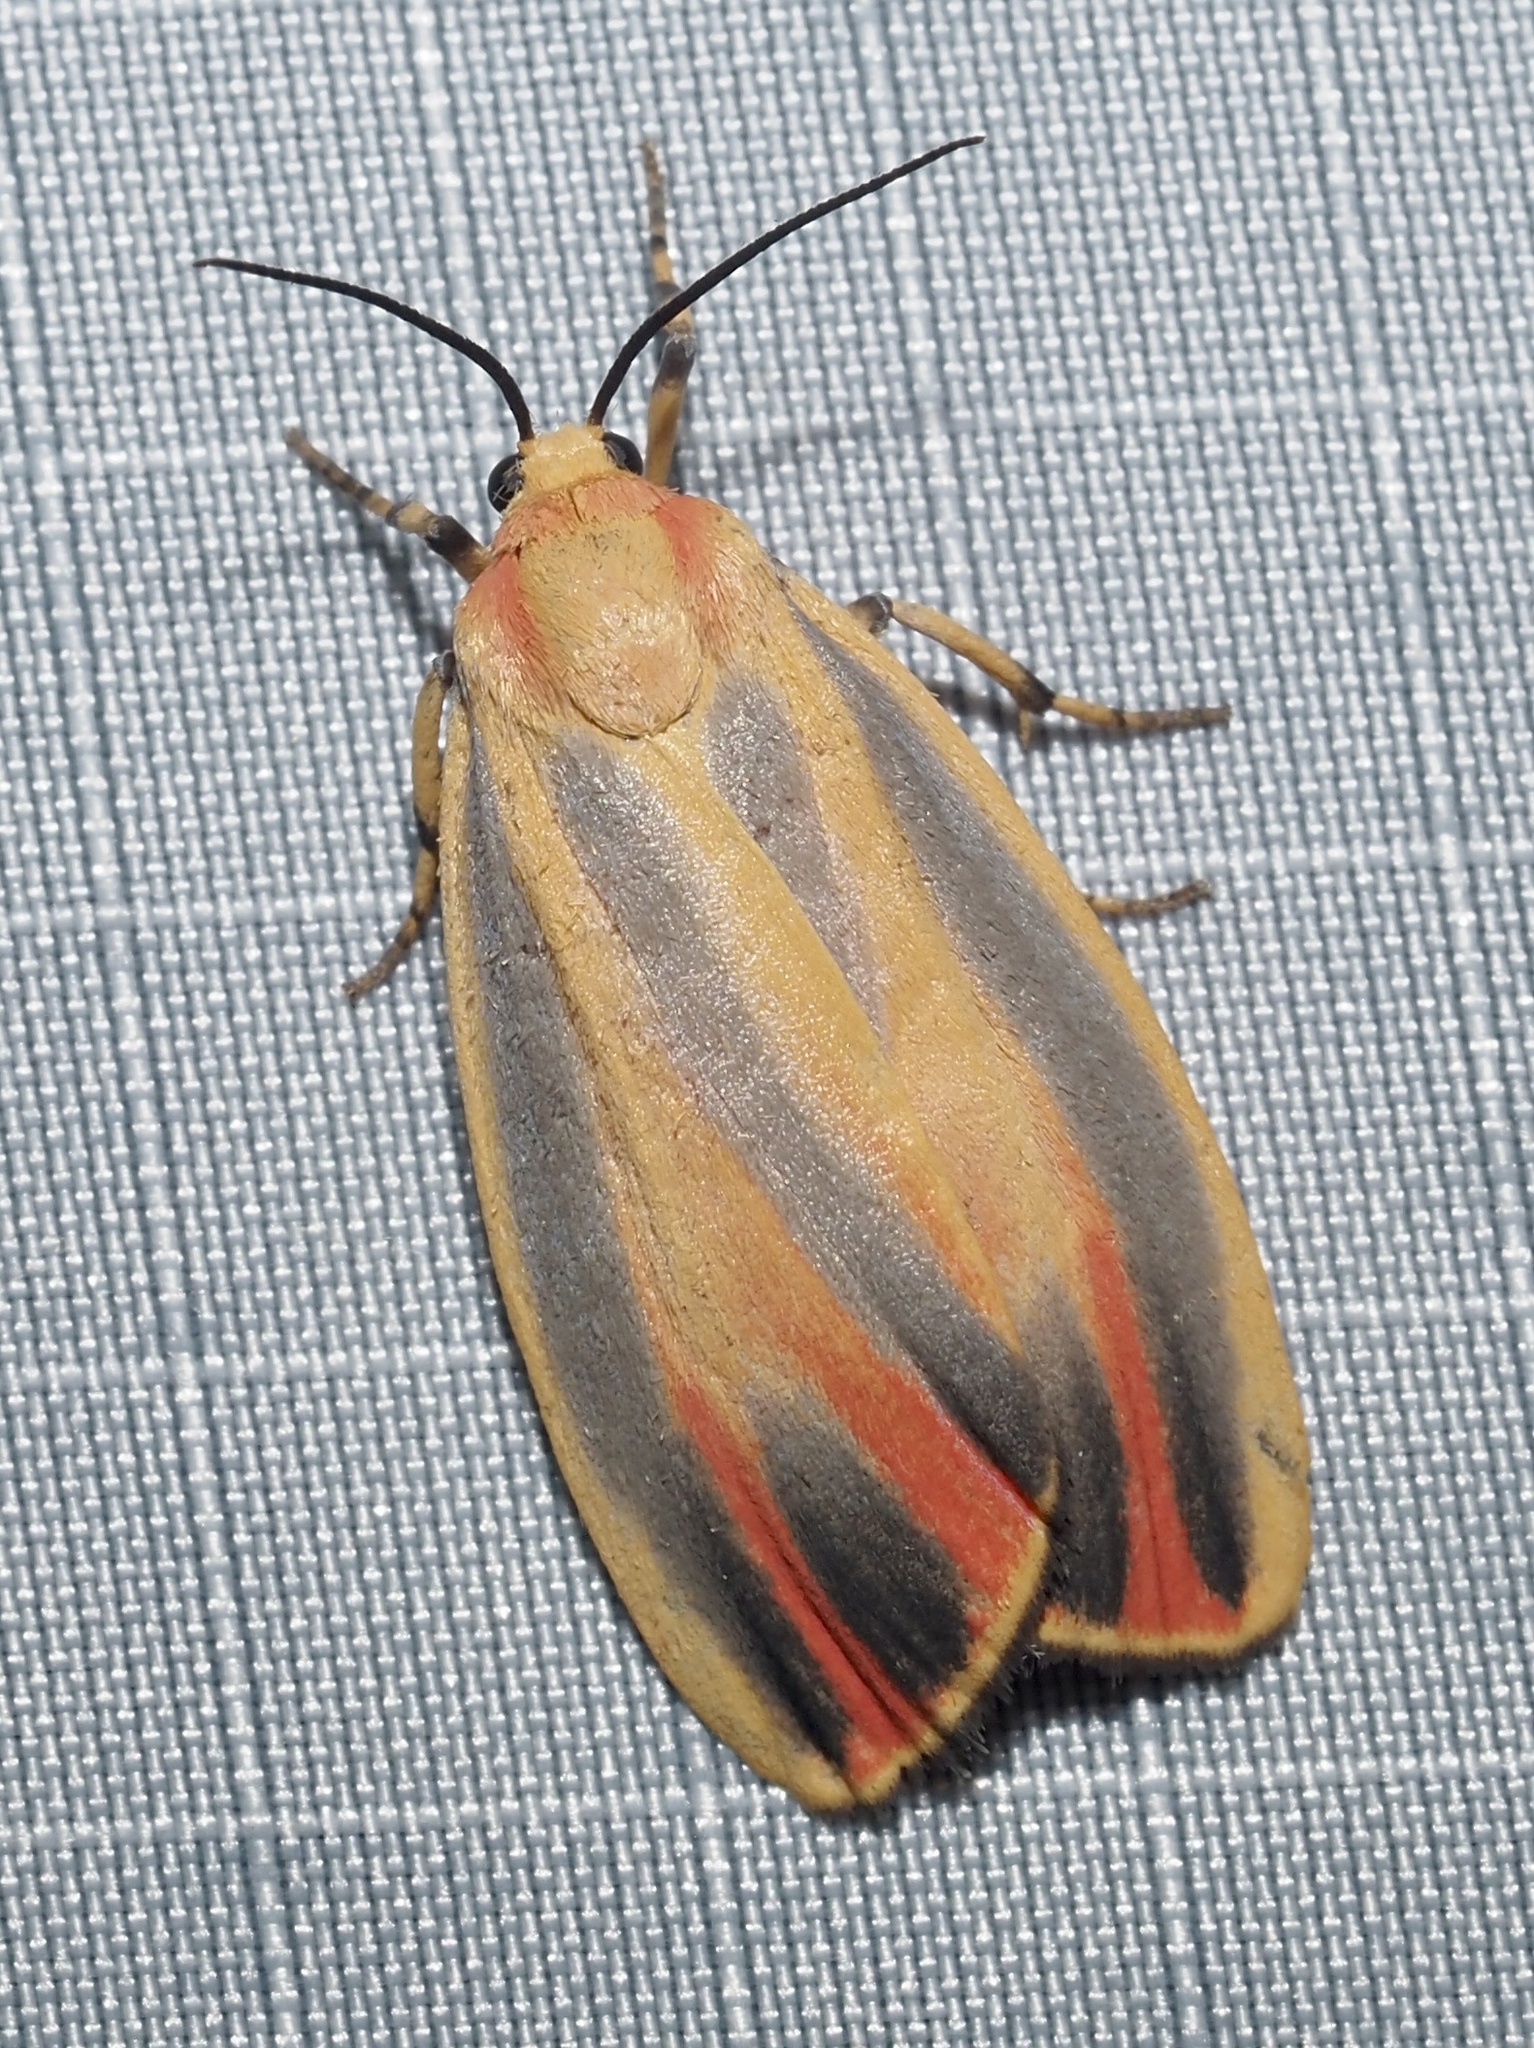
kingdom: Animalia
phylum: Arthropoda
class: Insecta
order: Lepidoptera
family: Erebidae
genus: Hypoprepia
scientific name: Hypoprepia fucosa
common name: Painted lichen moth
